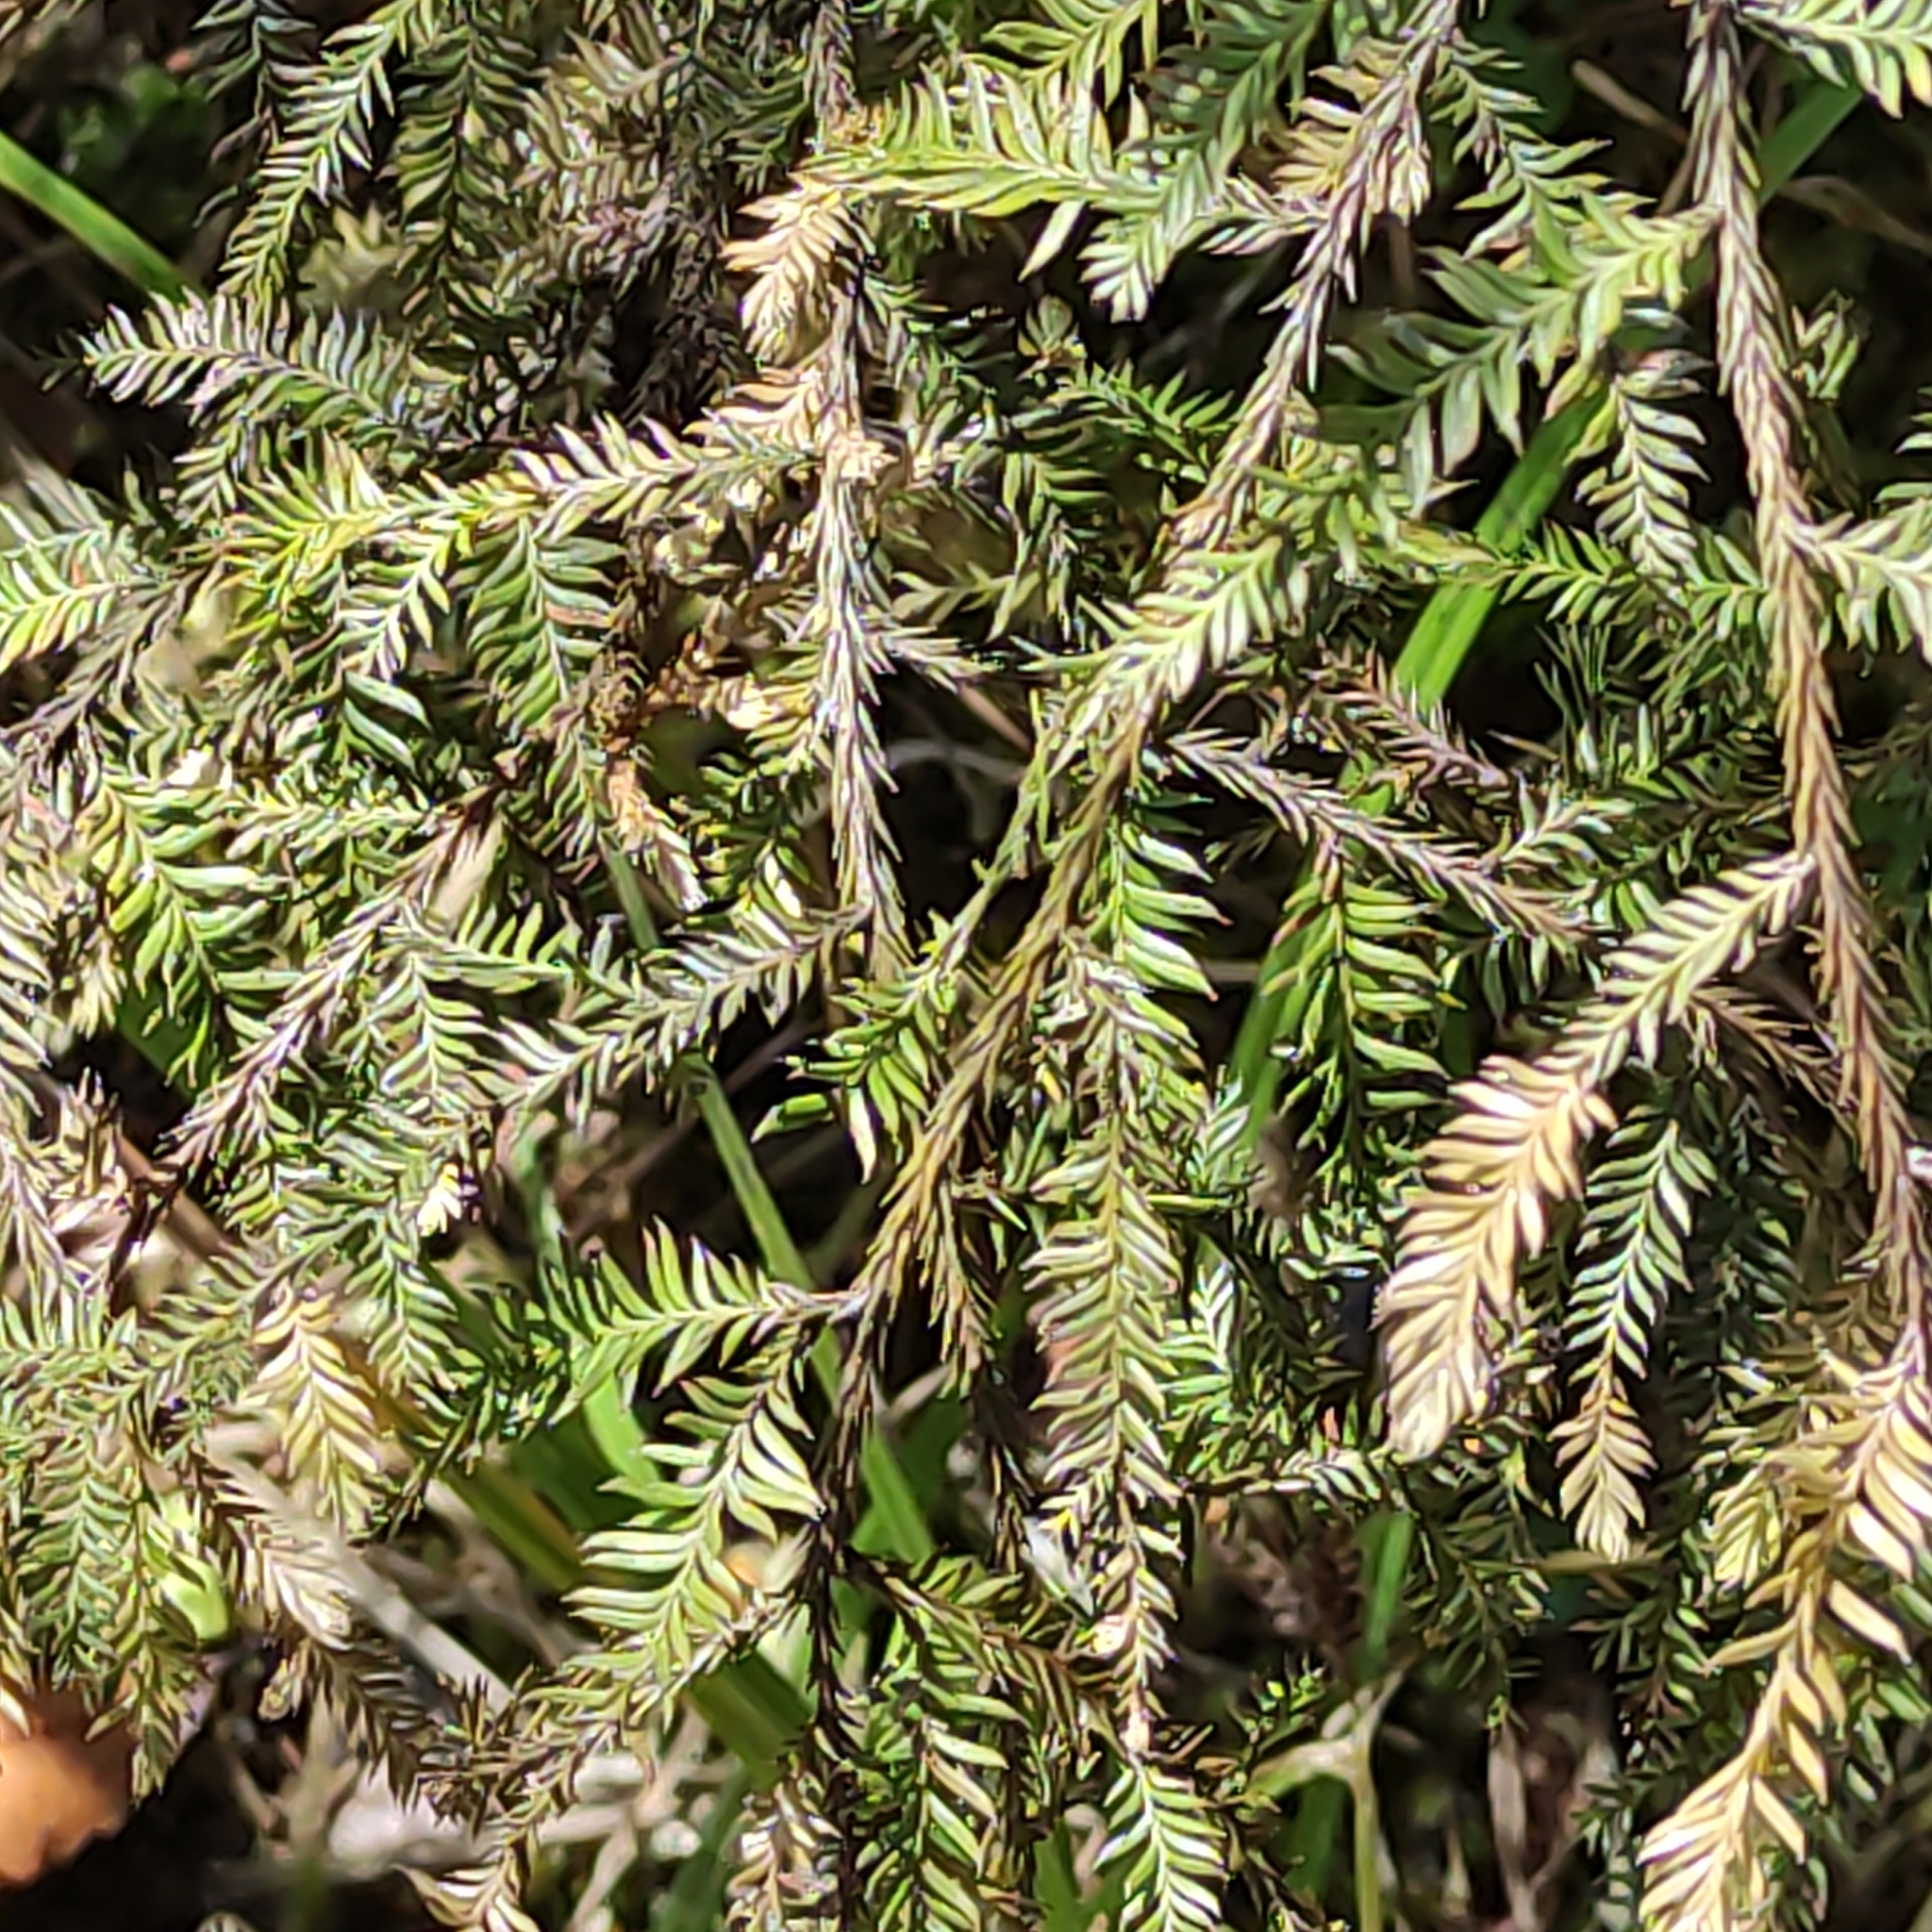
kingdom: Plantae
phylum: Tracheophyta
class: Pinopsida
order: Pinales
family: Podocarpaceae
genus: Dacrycarpus
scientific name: Dacrycarpus dacrydioides
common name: White pine
